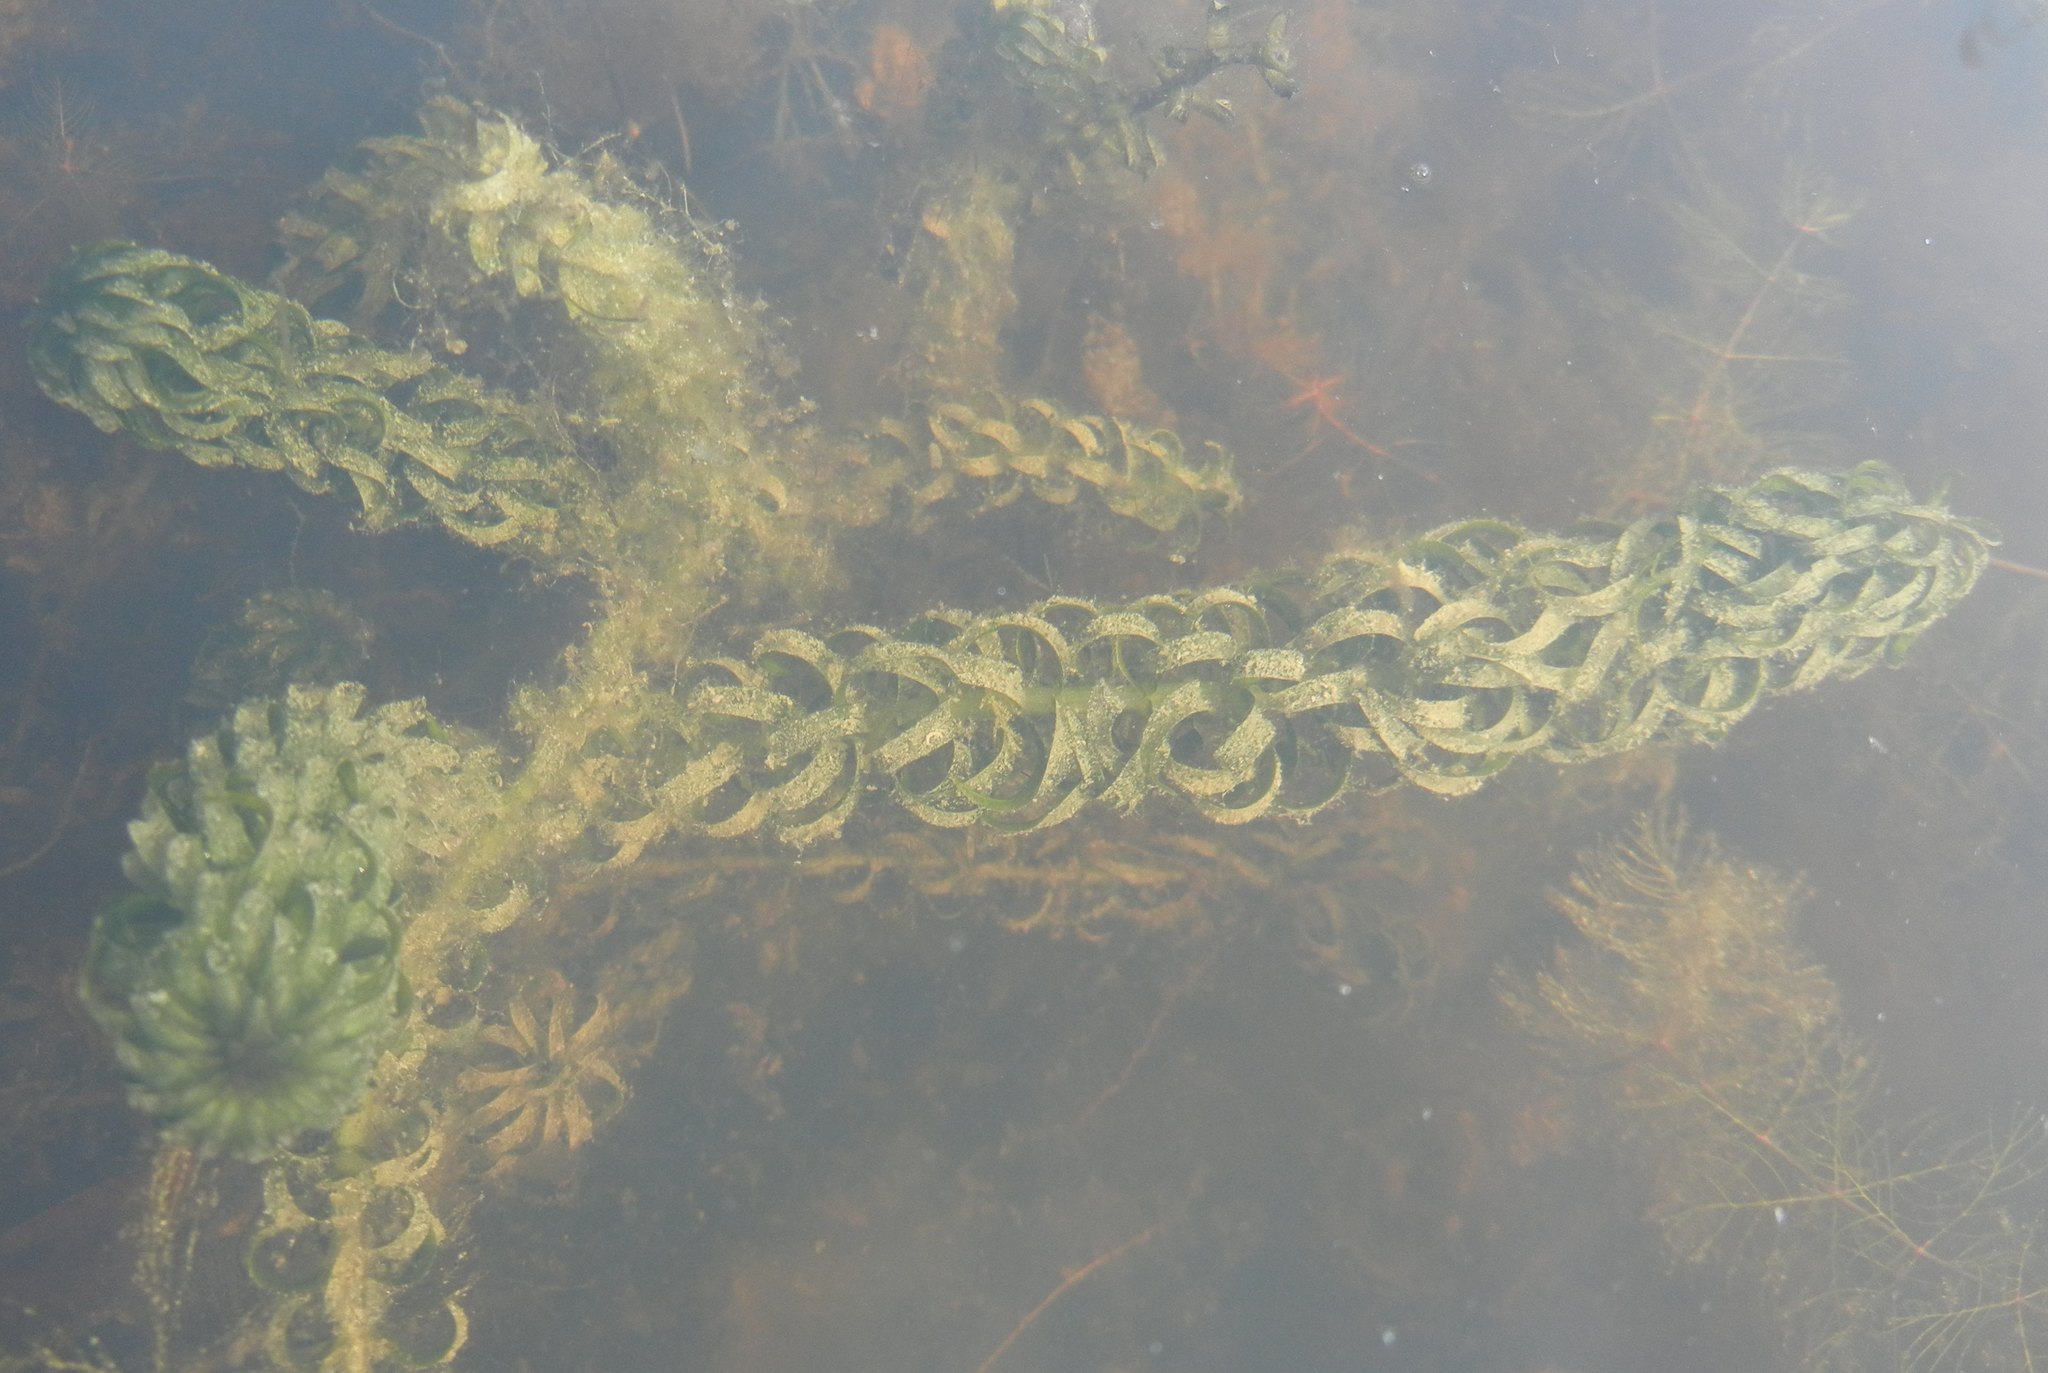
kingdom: Plantae
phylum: Tracheophyta
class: Liliopsida
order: Alismatales
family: Hydrocharitaceae
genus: Lagarosiphon
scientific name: Lagarosiphon major
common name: Curly waterweed
